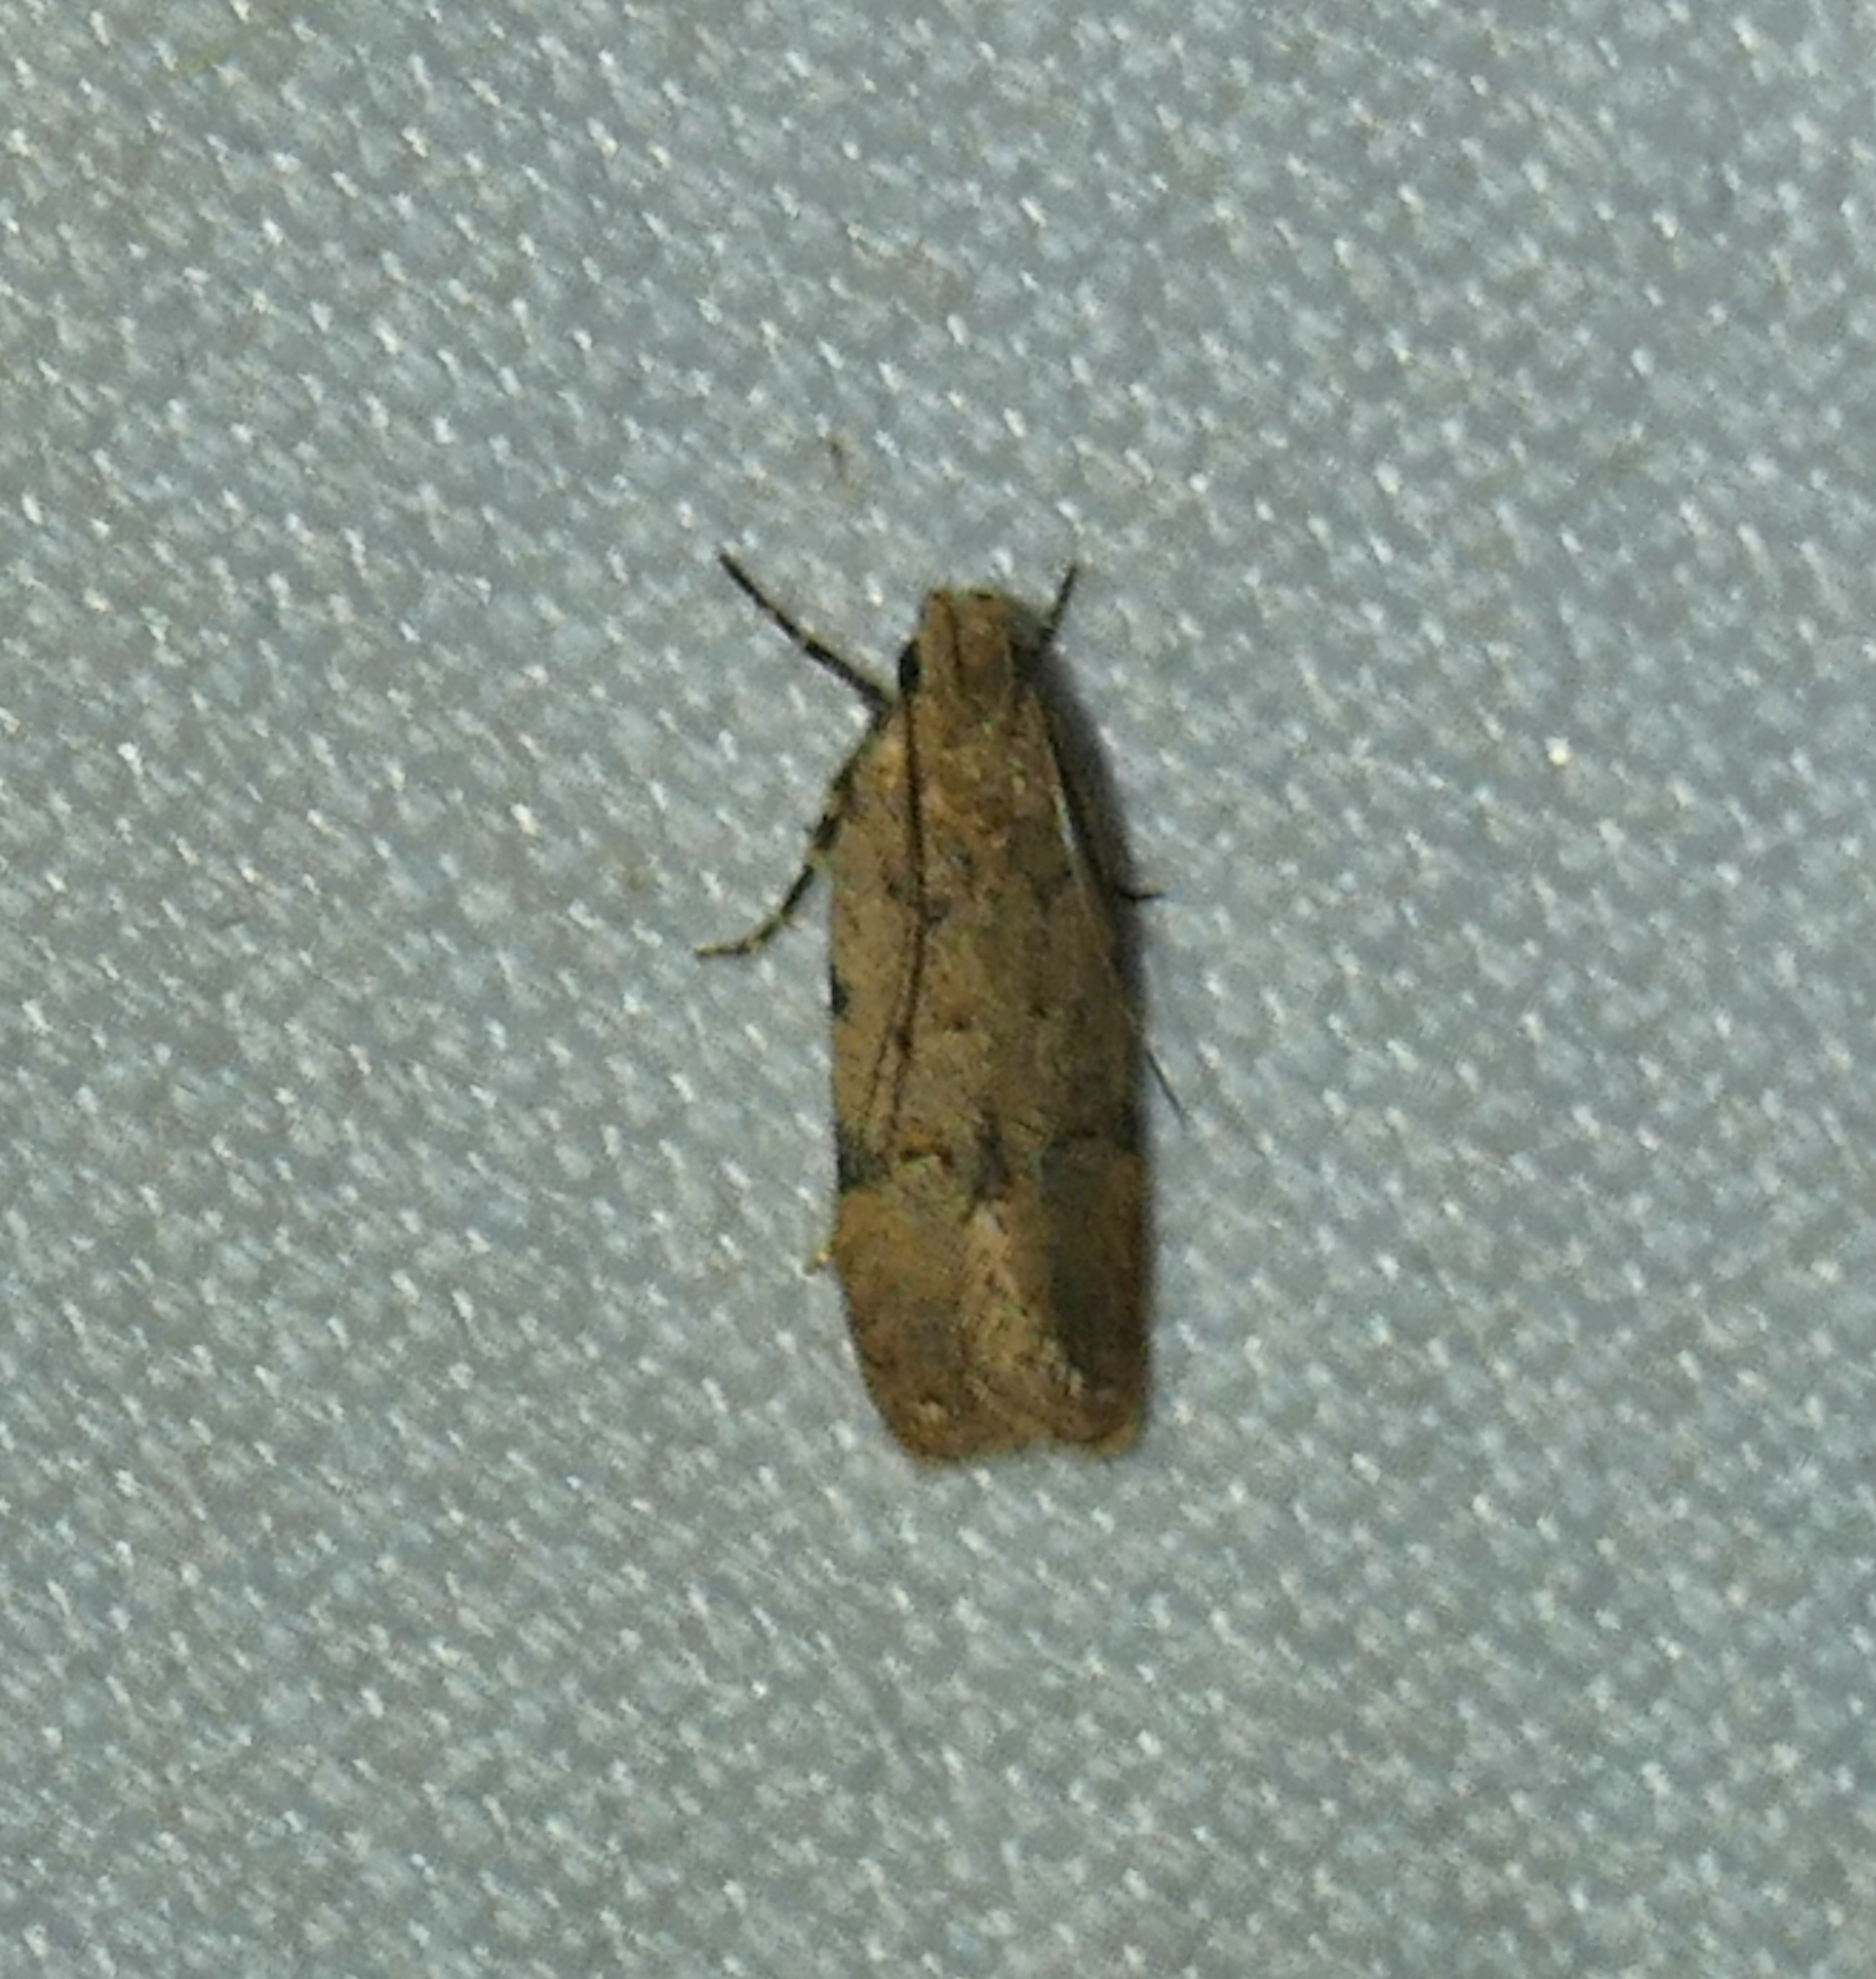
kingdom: Animalia
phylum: Arthropoda
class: Insecta
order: Lepidoptera
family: Gelechiidae
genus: Friseria
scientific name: Friseria cockerelli
